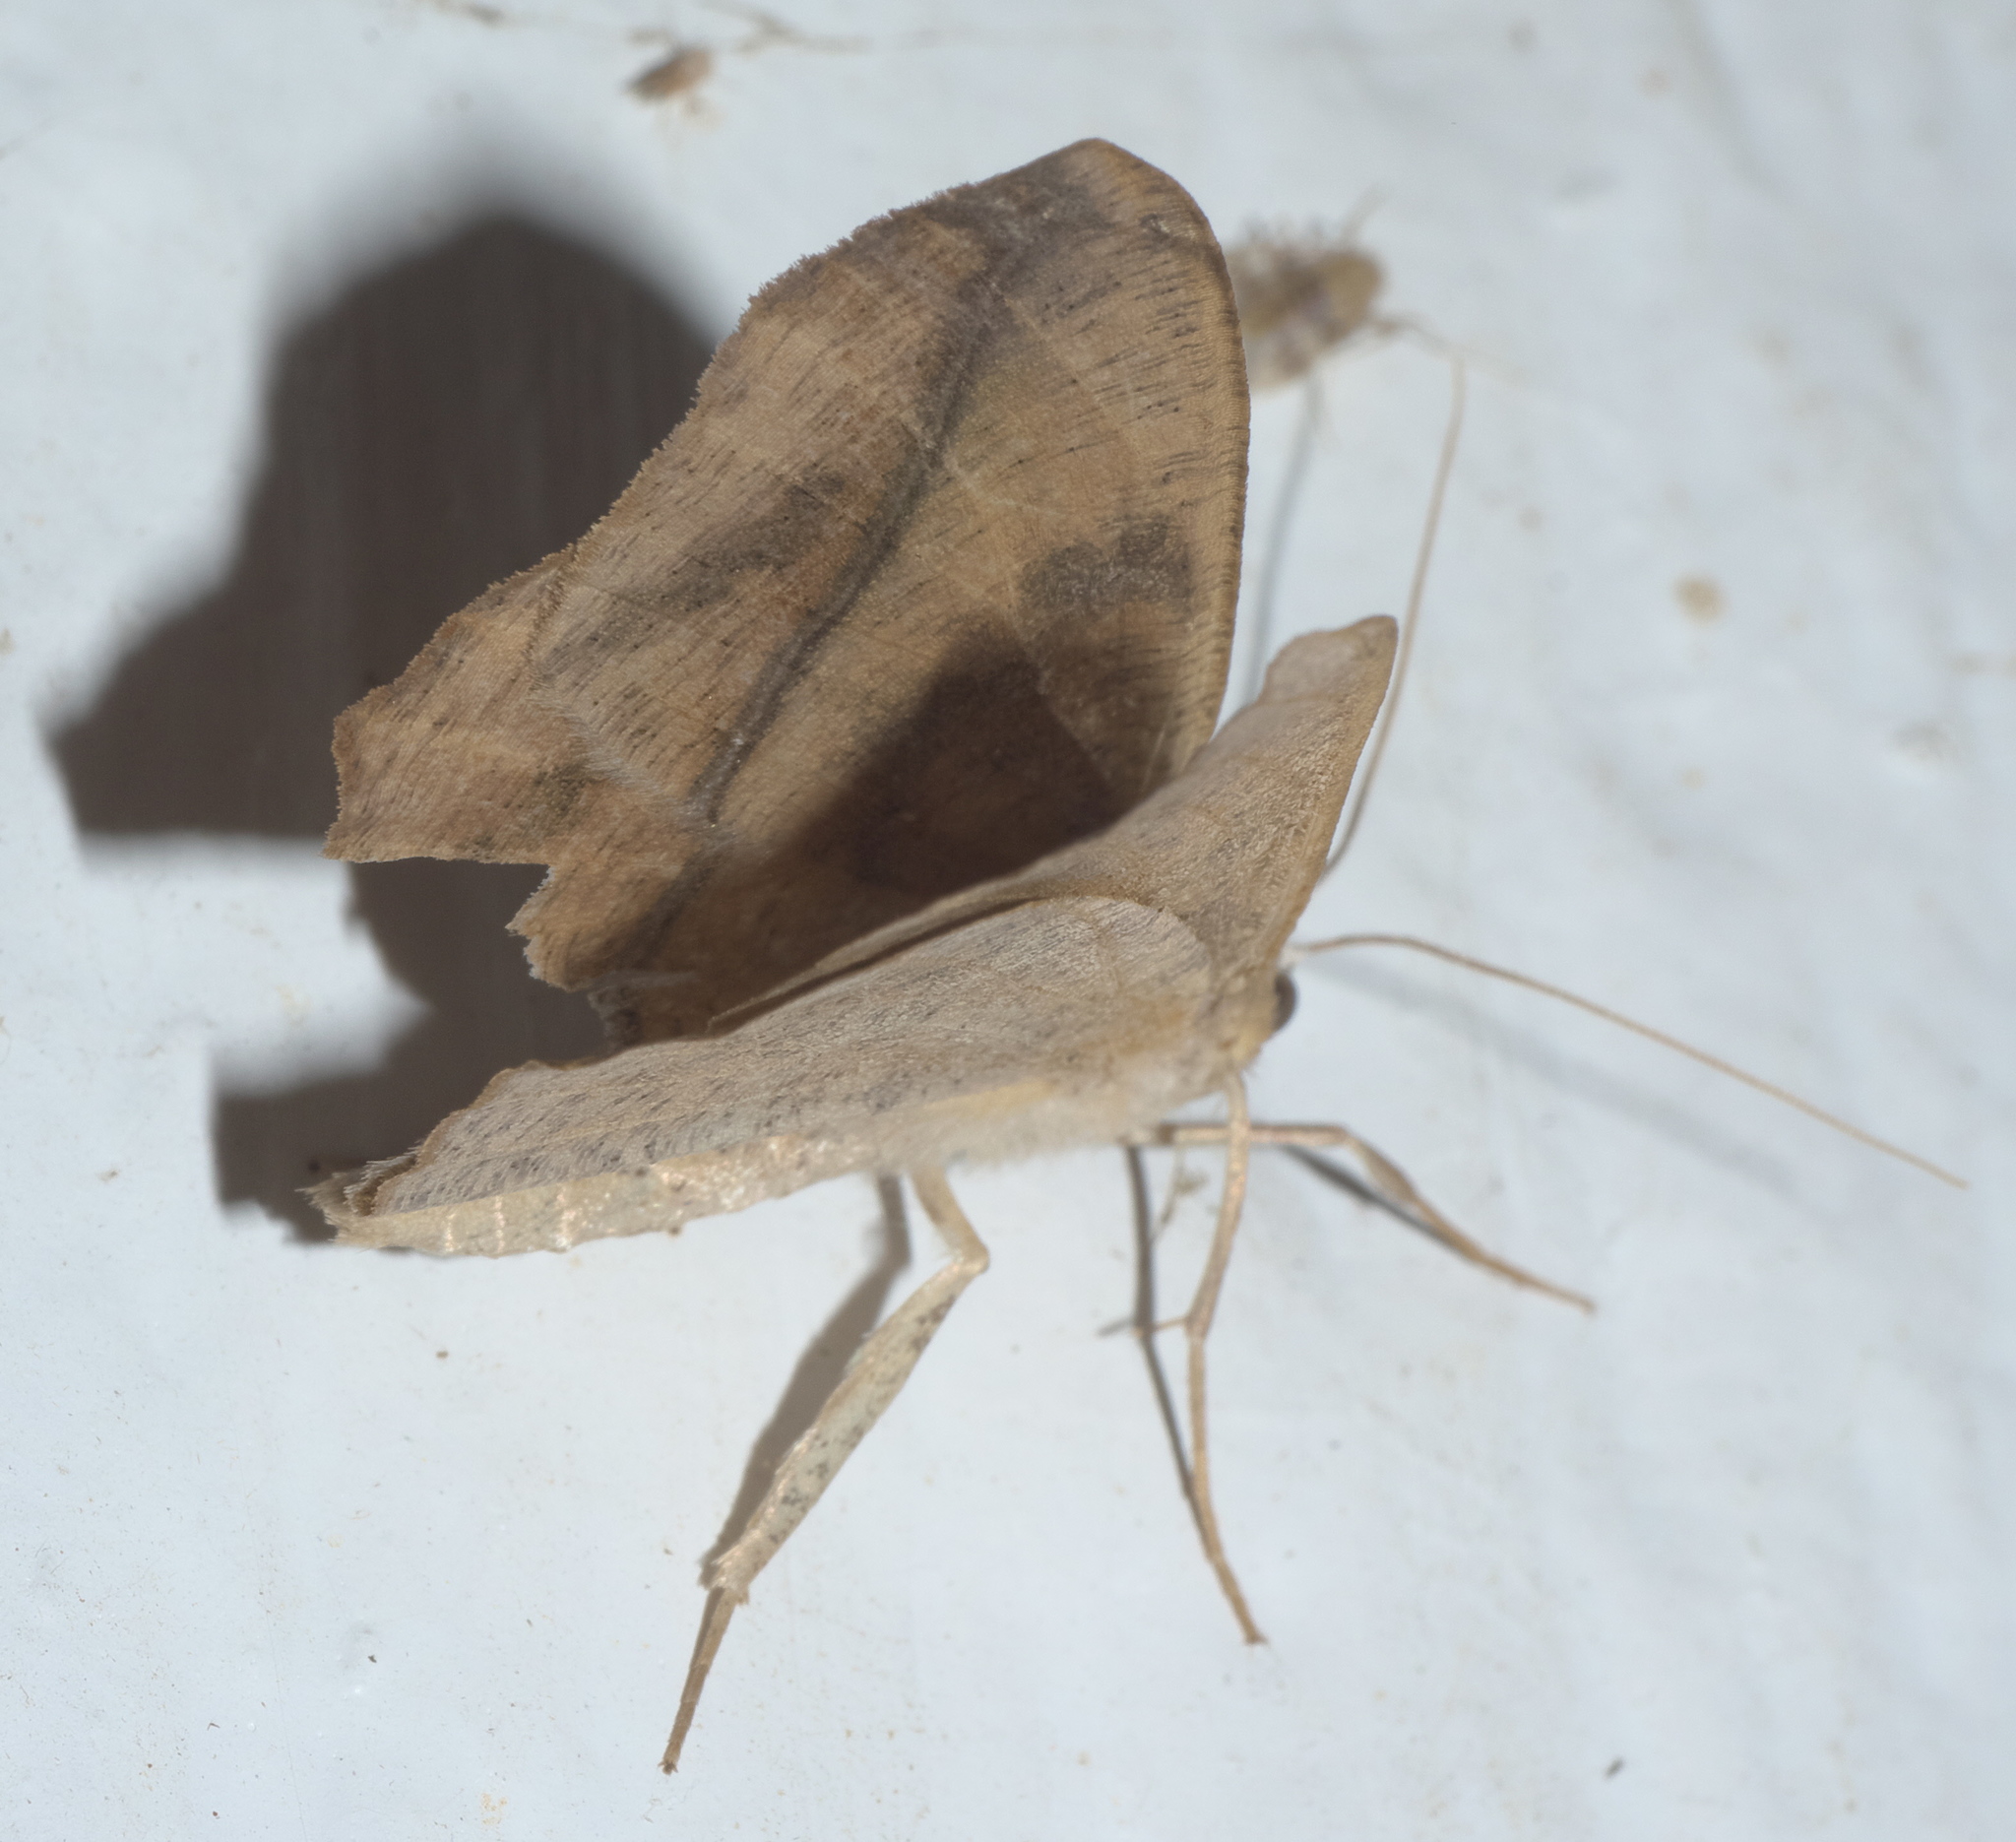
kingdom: Animalia
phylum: Arthropoda
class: Insecta
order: Lepidoptera
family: Geometridae
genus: Prochoerodes
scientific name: Prochoerodes lineola
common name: Large maple spanworm
